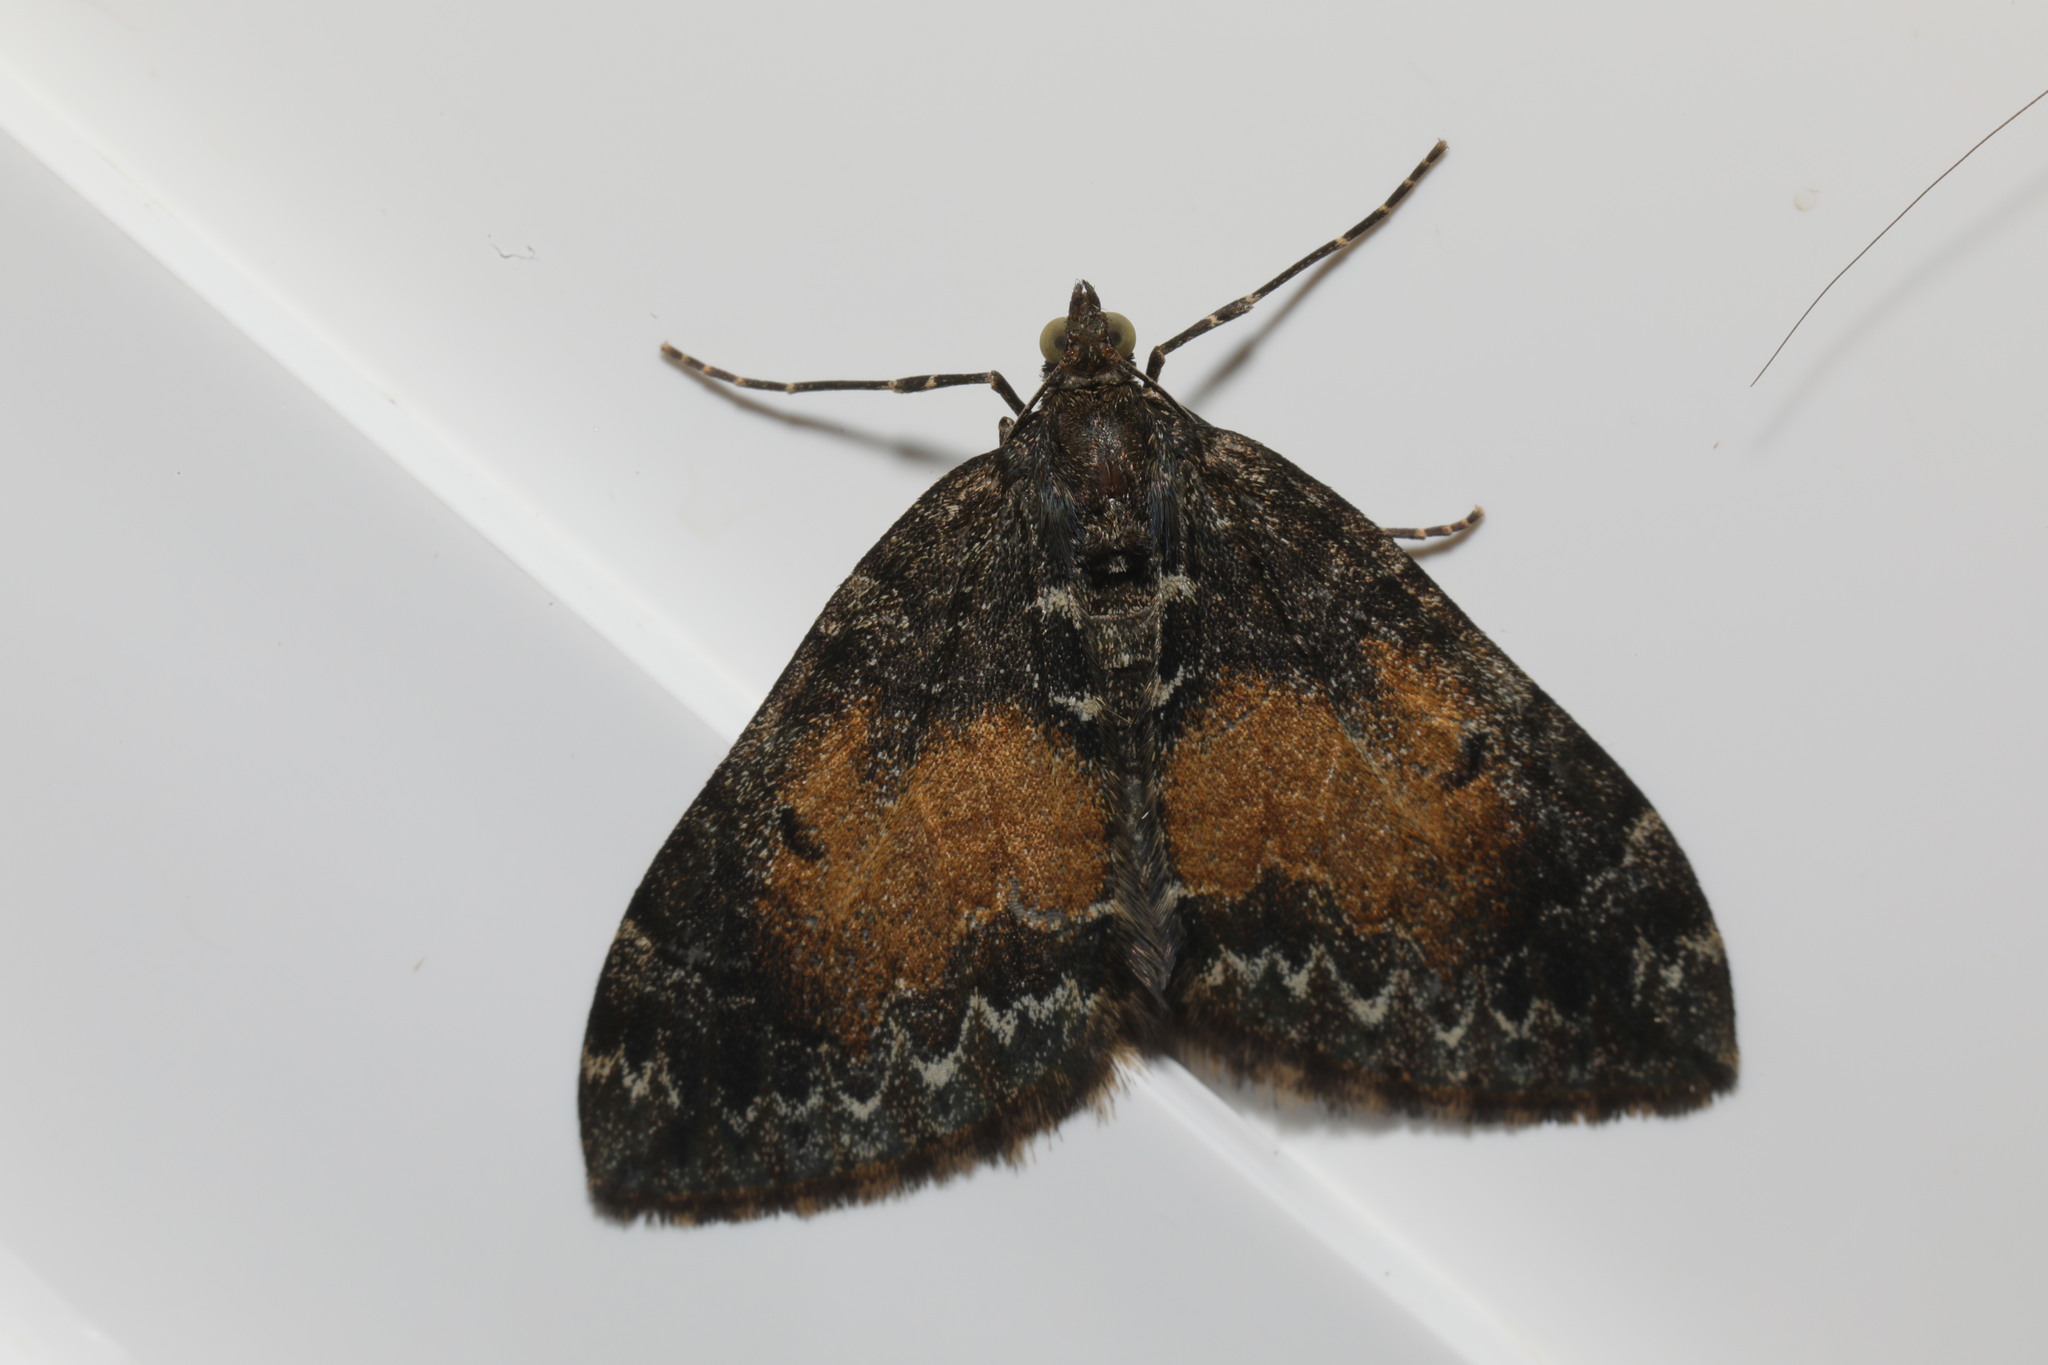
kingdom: Animalia
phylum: Arthropoda
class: Insecta
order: Lepidoptera
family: Geometridae
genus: Dysstroma
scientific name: Dysstroma truncata
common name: Common marbled carpet
